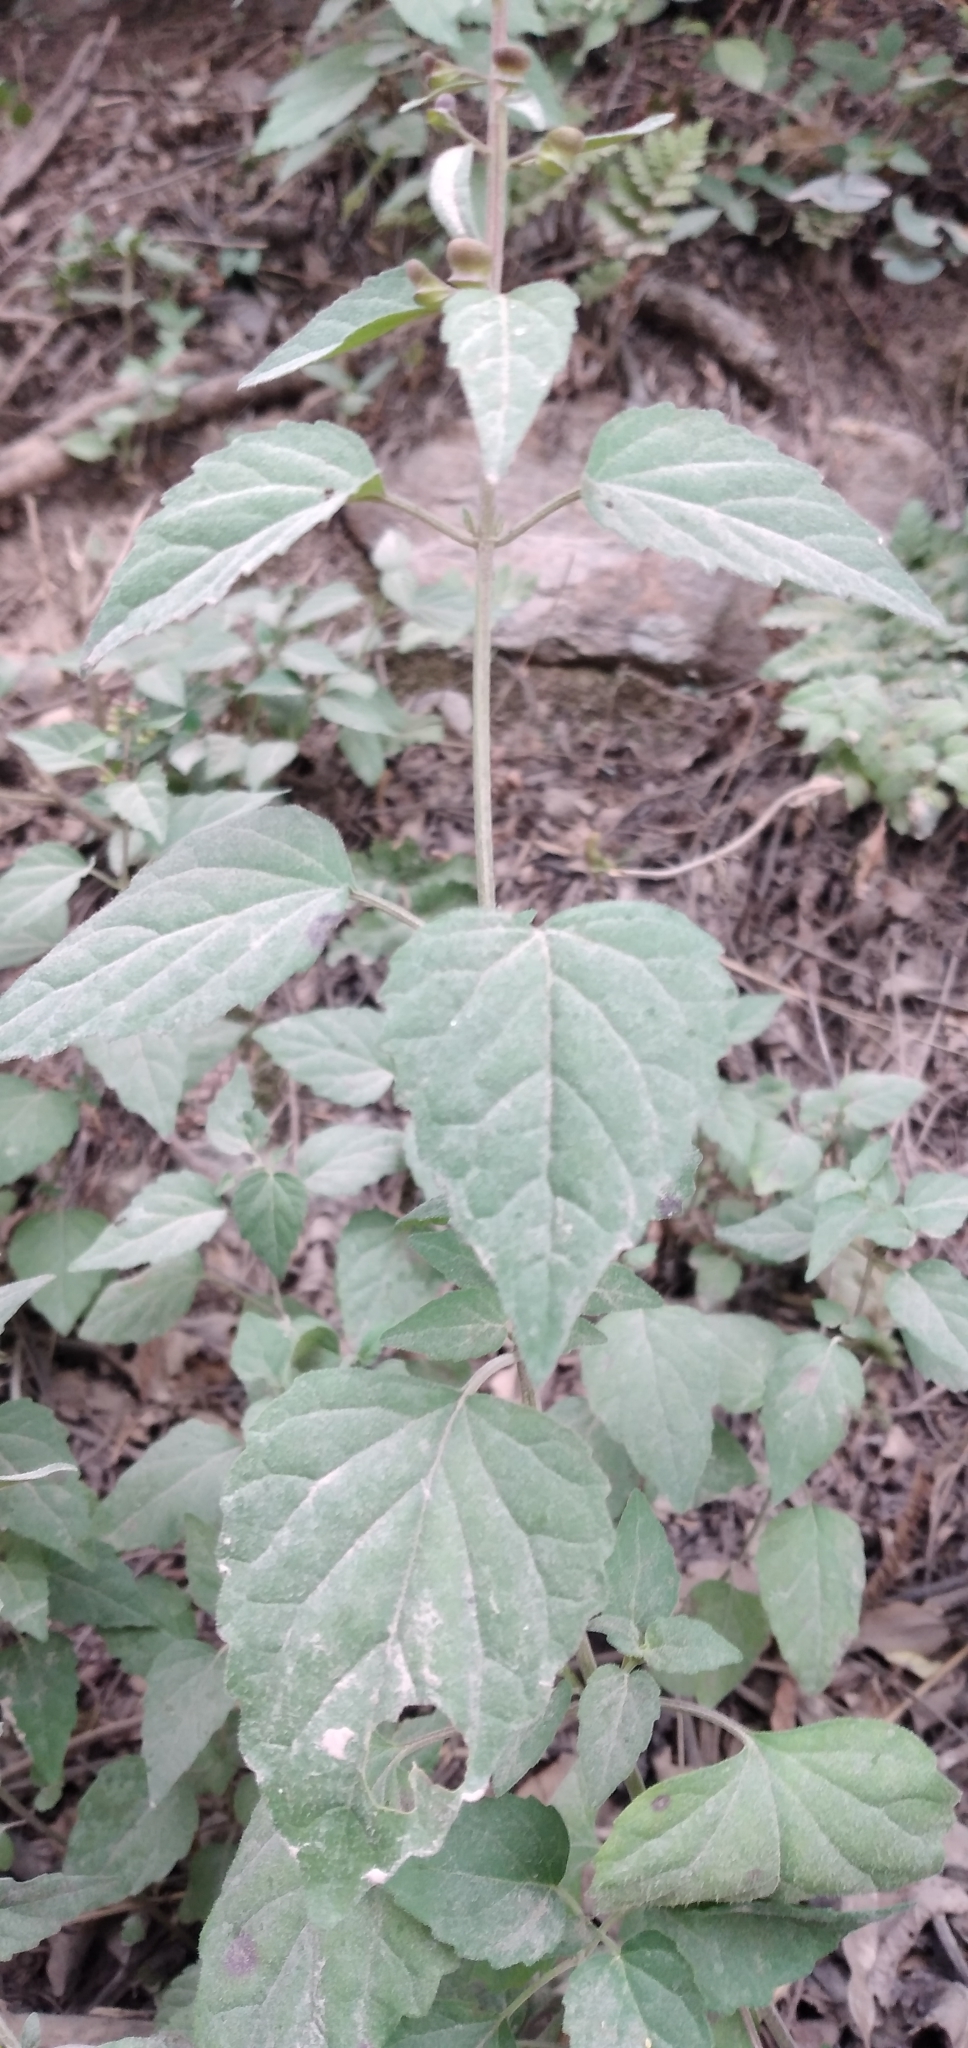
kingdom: Plantae
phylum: Tracheophyta
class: Magnoliopsida
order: Lamiales
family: Lamiaceae
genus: Scutellaria
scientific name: Scutellaria purpurascens
